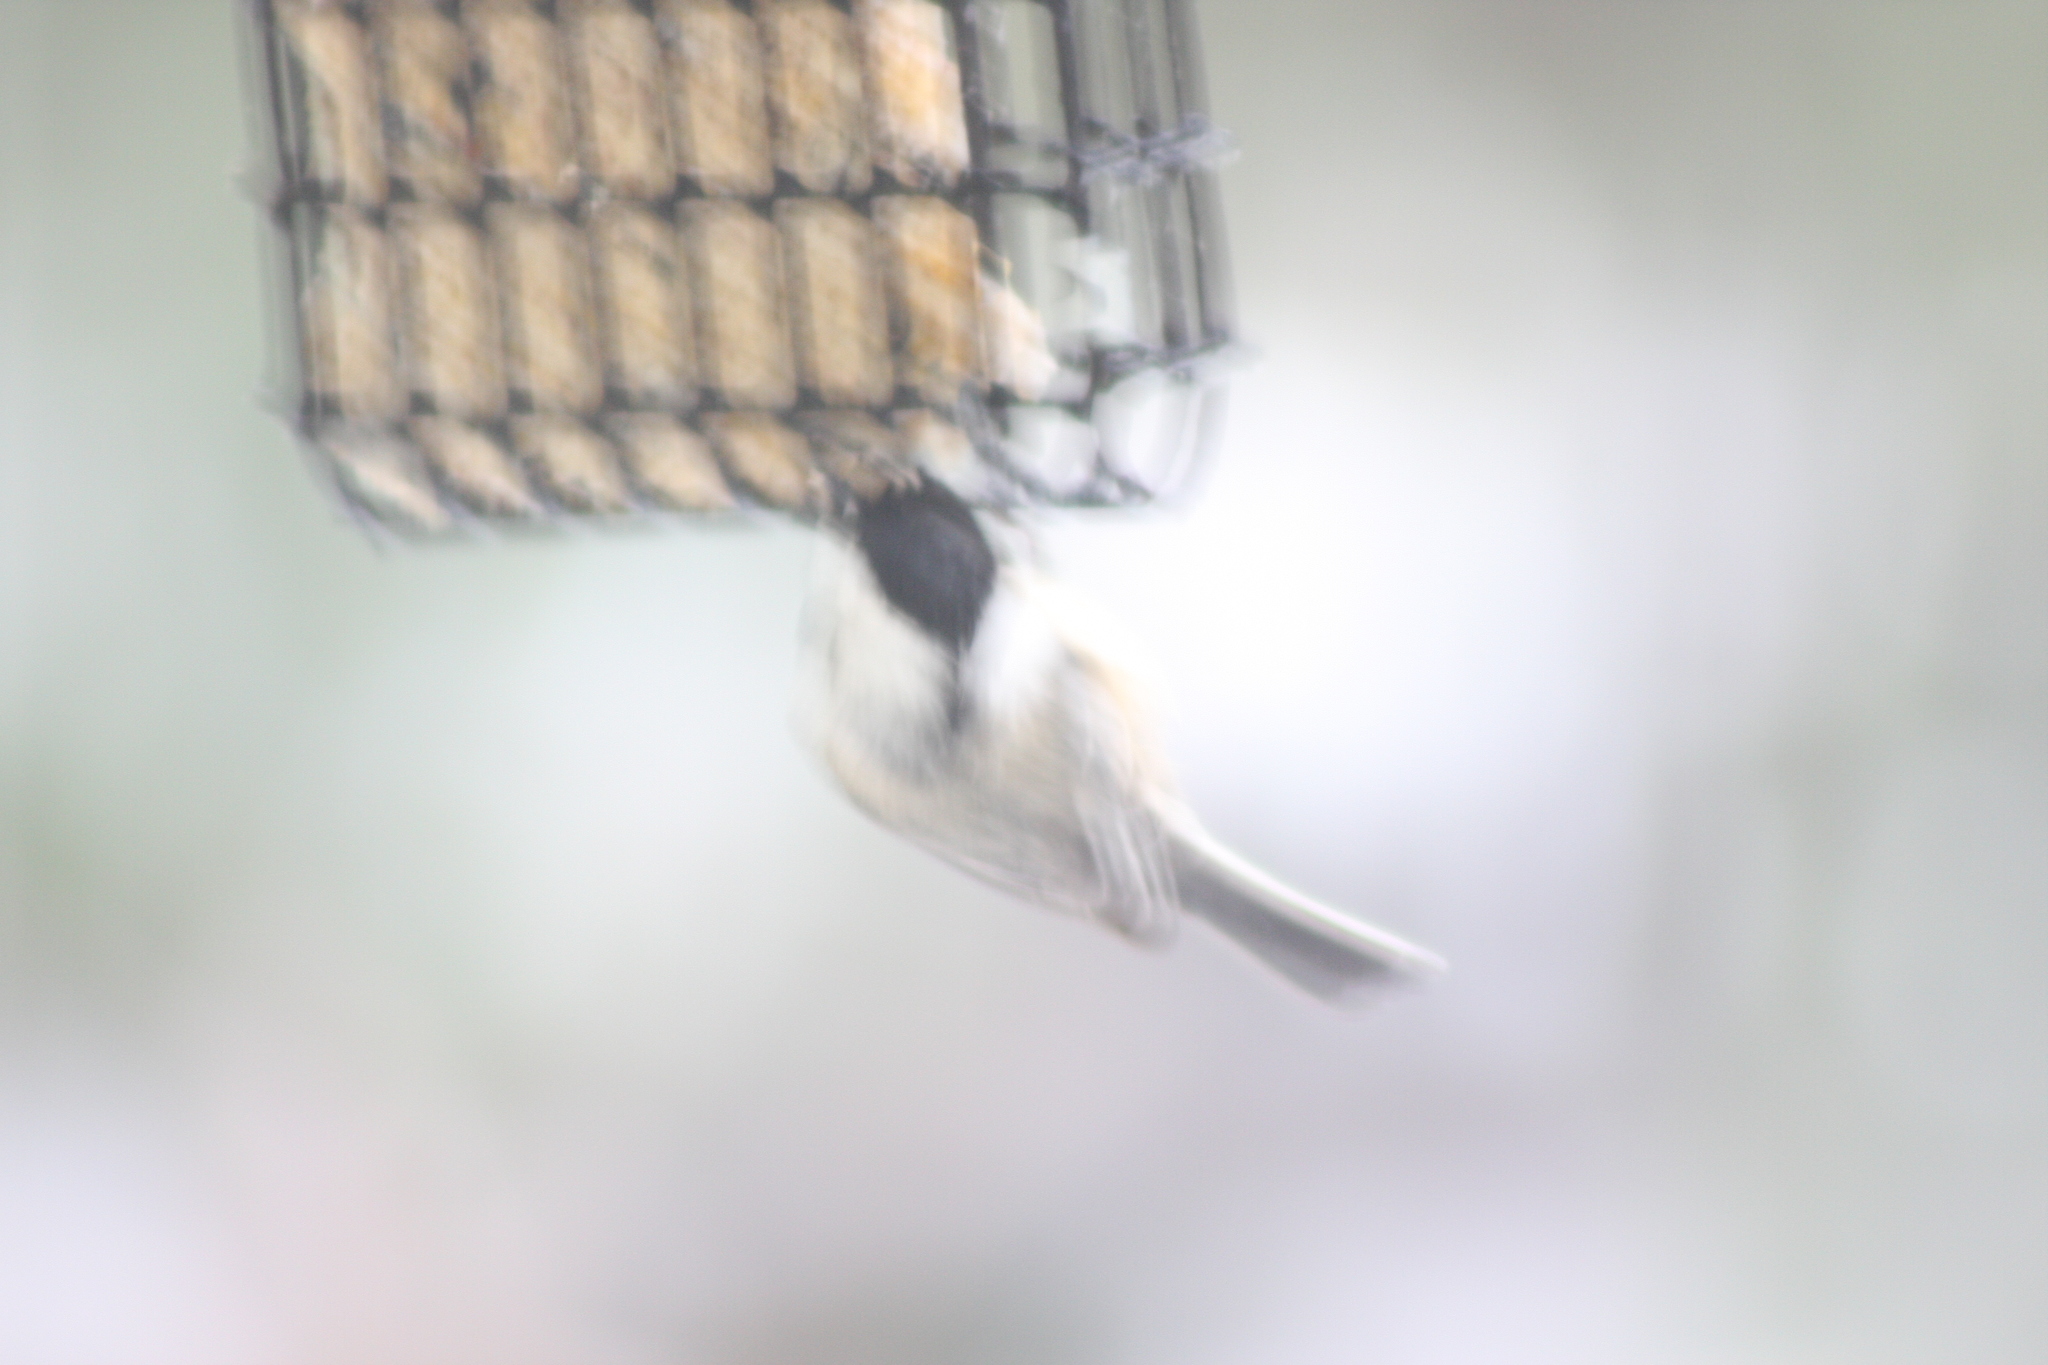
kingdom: Animalia
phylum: Chordata
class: Aves
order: Passeriformes
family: Paridae
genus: Poecile
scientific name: Poecile atricapillus
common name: Black-capped chickadee
